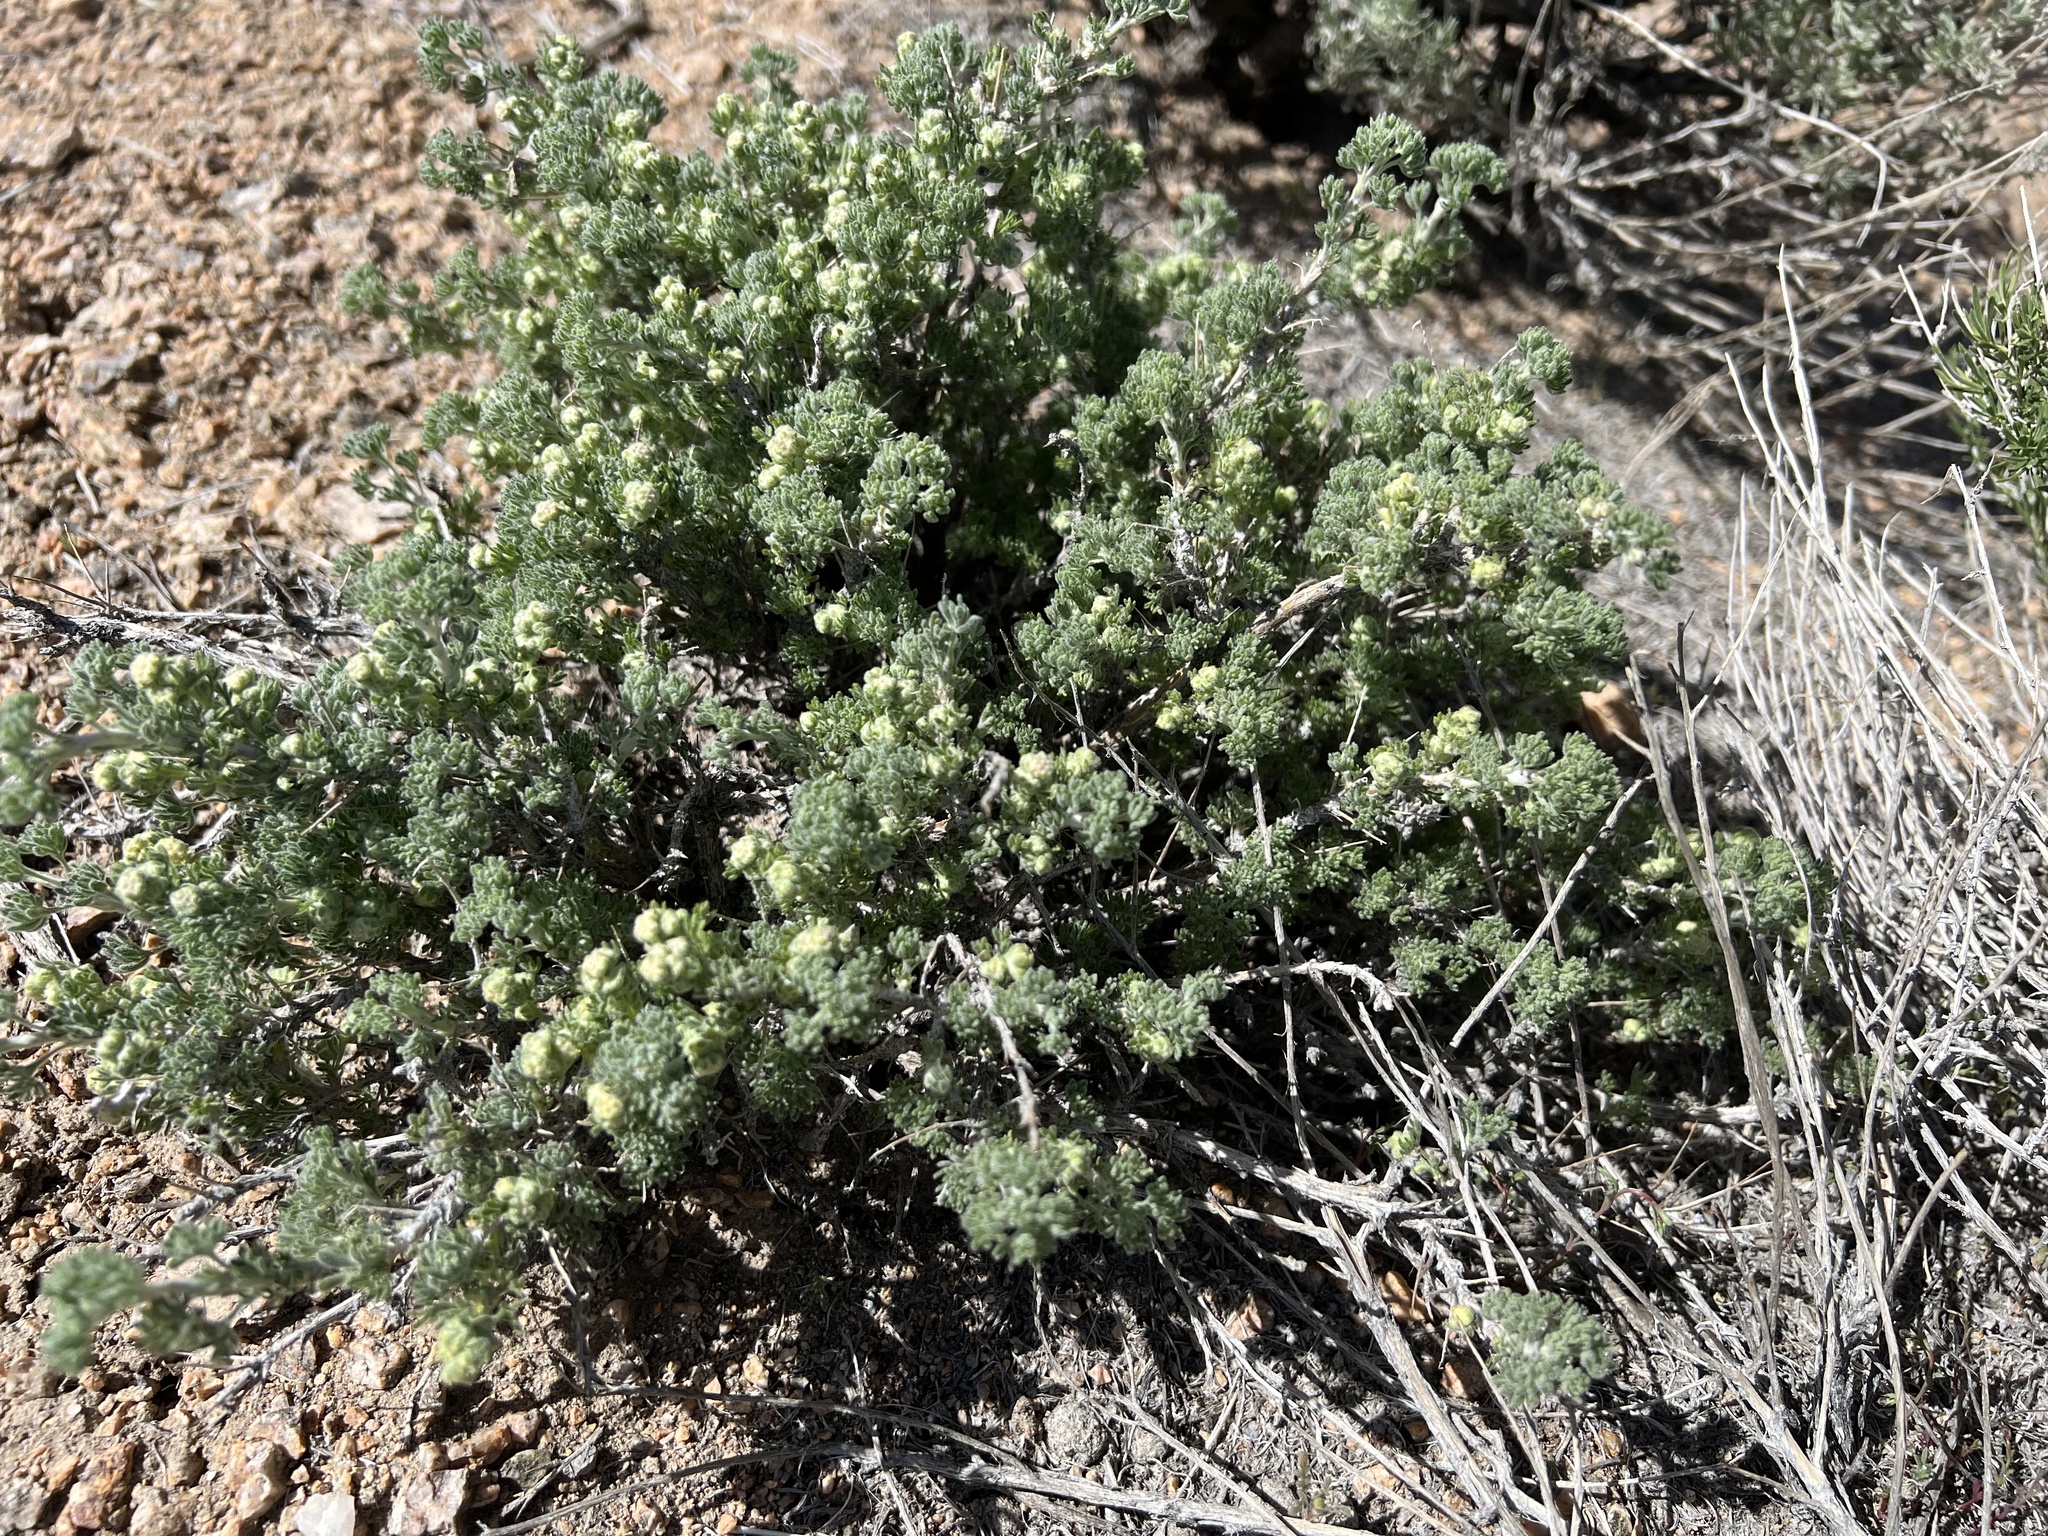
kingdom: Plantae
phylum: Tracheophyta
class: Magnoliopsida
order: Asterales
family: Asteraceae
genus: Artemisia
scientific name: Artemisia spinescens
